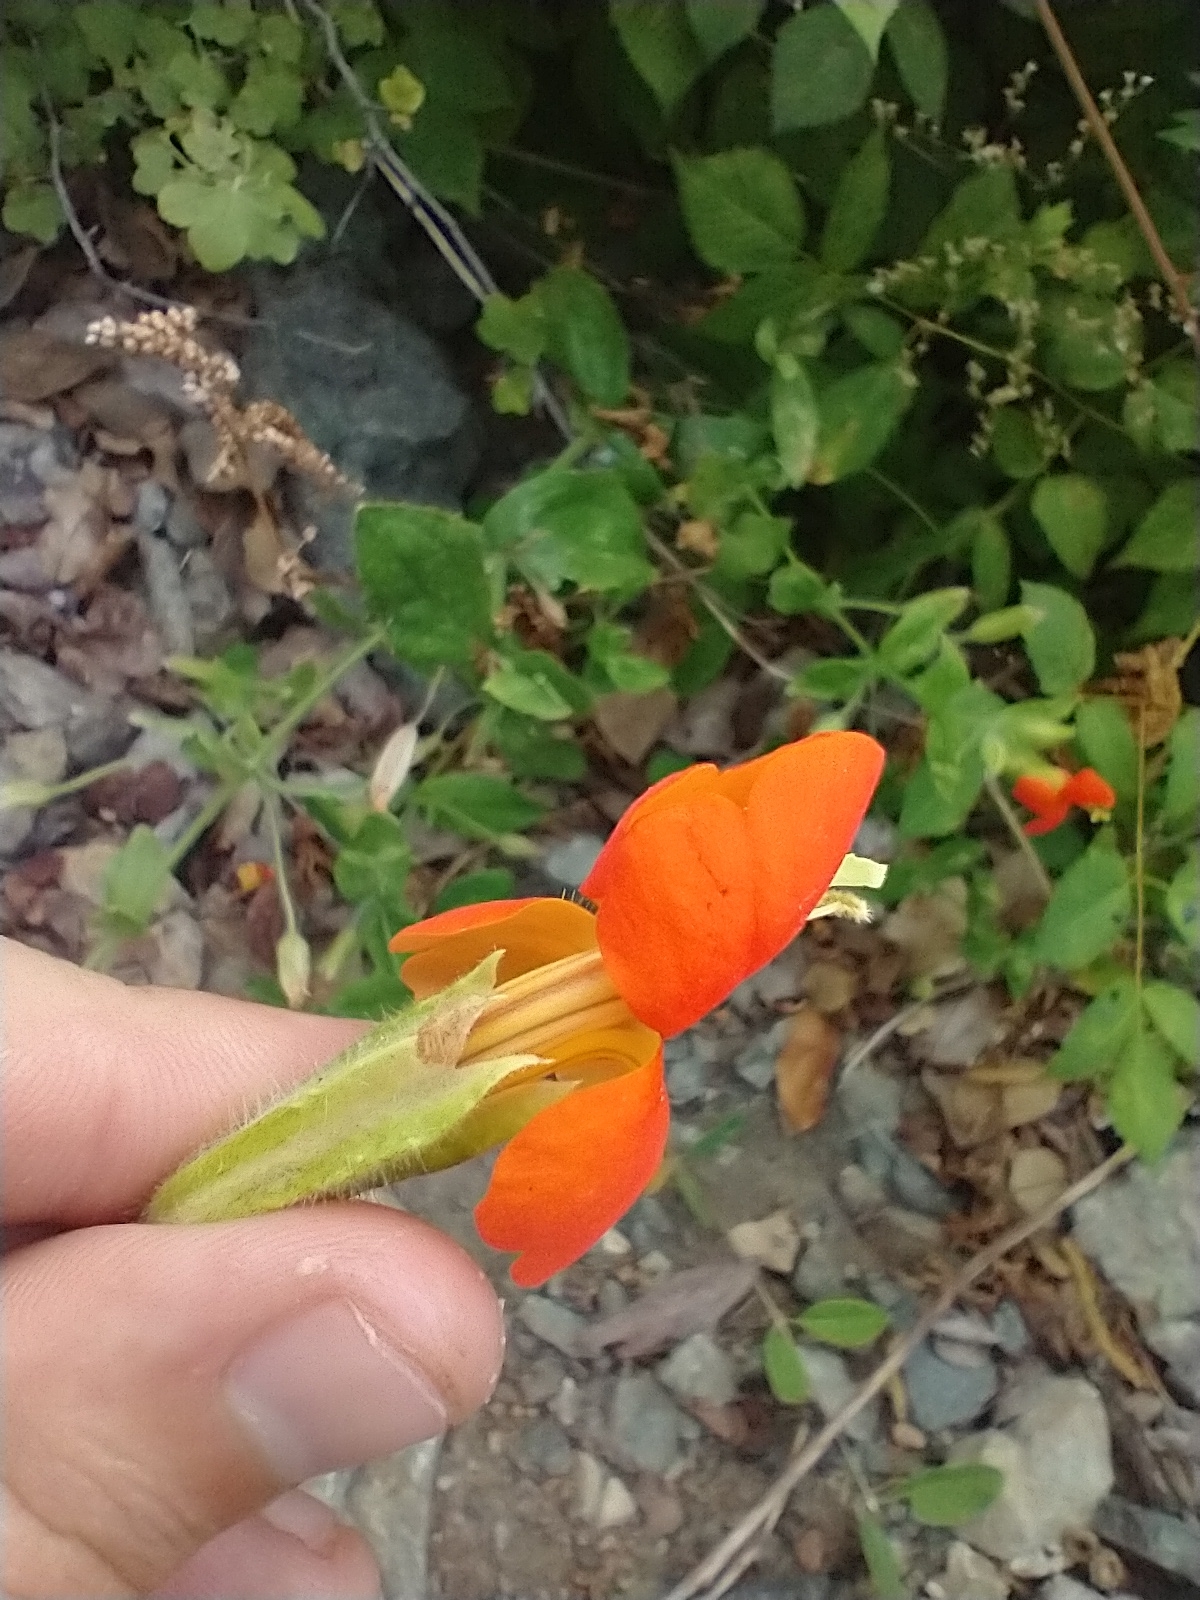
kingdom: Plantae
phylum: Tracheophyta
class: Magnoliopsida
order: Lamiales
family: Phrymaceae
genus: Erythranthe
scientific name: Erythranthe cardinalis
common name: Scarlet monkey-flower
